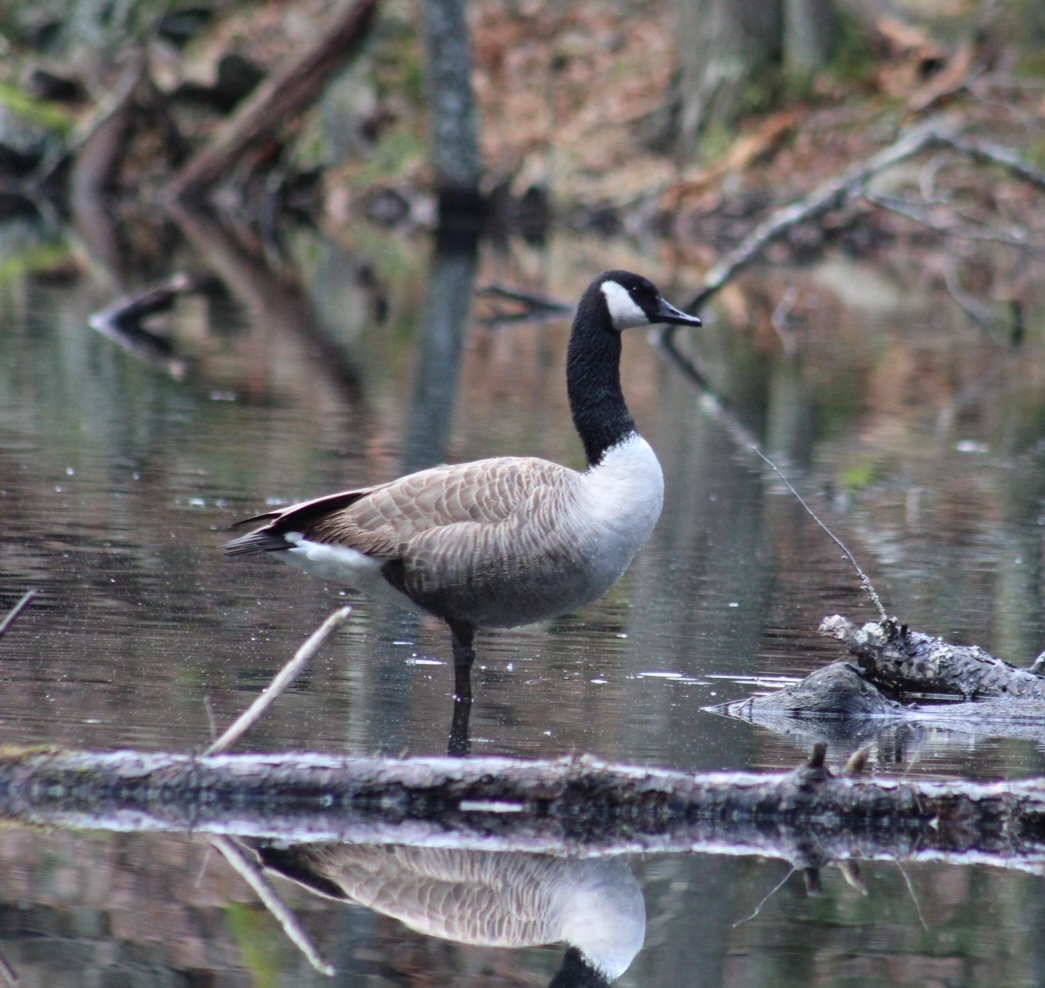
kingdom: Animalia
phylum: Chordata
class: Aves
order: Anseriformes
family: Anatidae
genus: Branta
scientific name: Branta canadensis
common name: Canada goose
